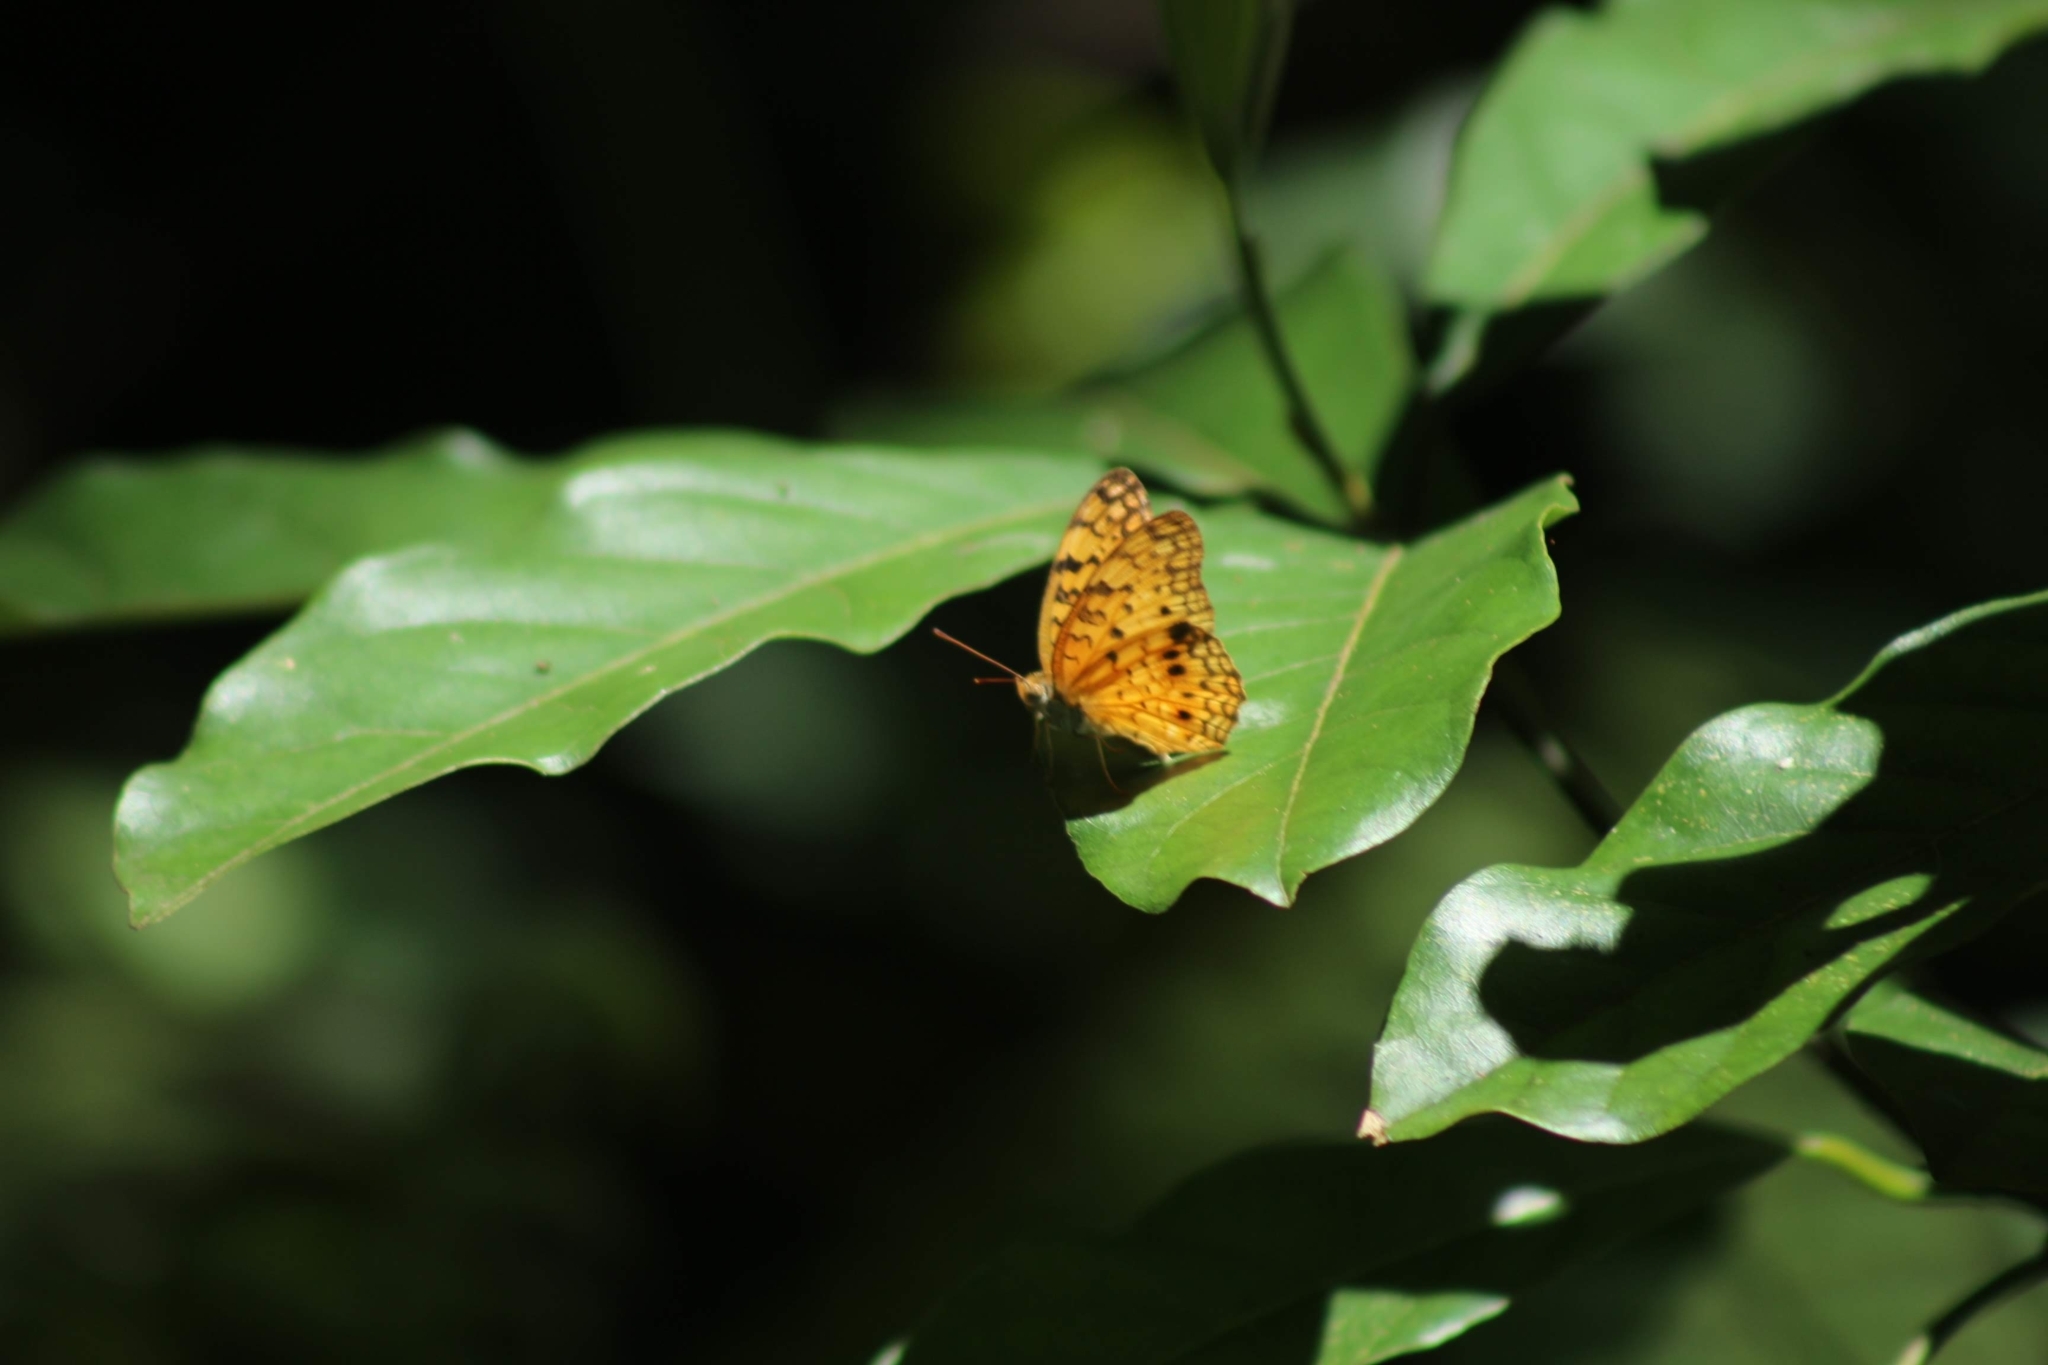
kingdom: Animalia
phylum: Arthropoda
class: Insecta
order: Lepidoptera
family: Nymphalidae
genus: Phalanta
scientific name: Phalanta phalantha
